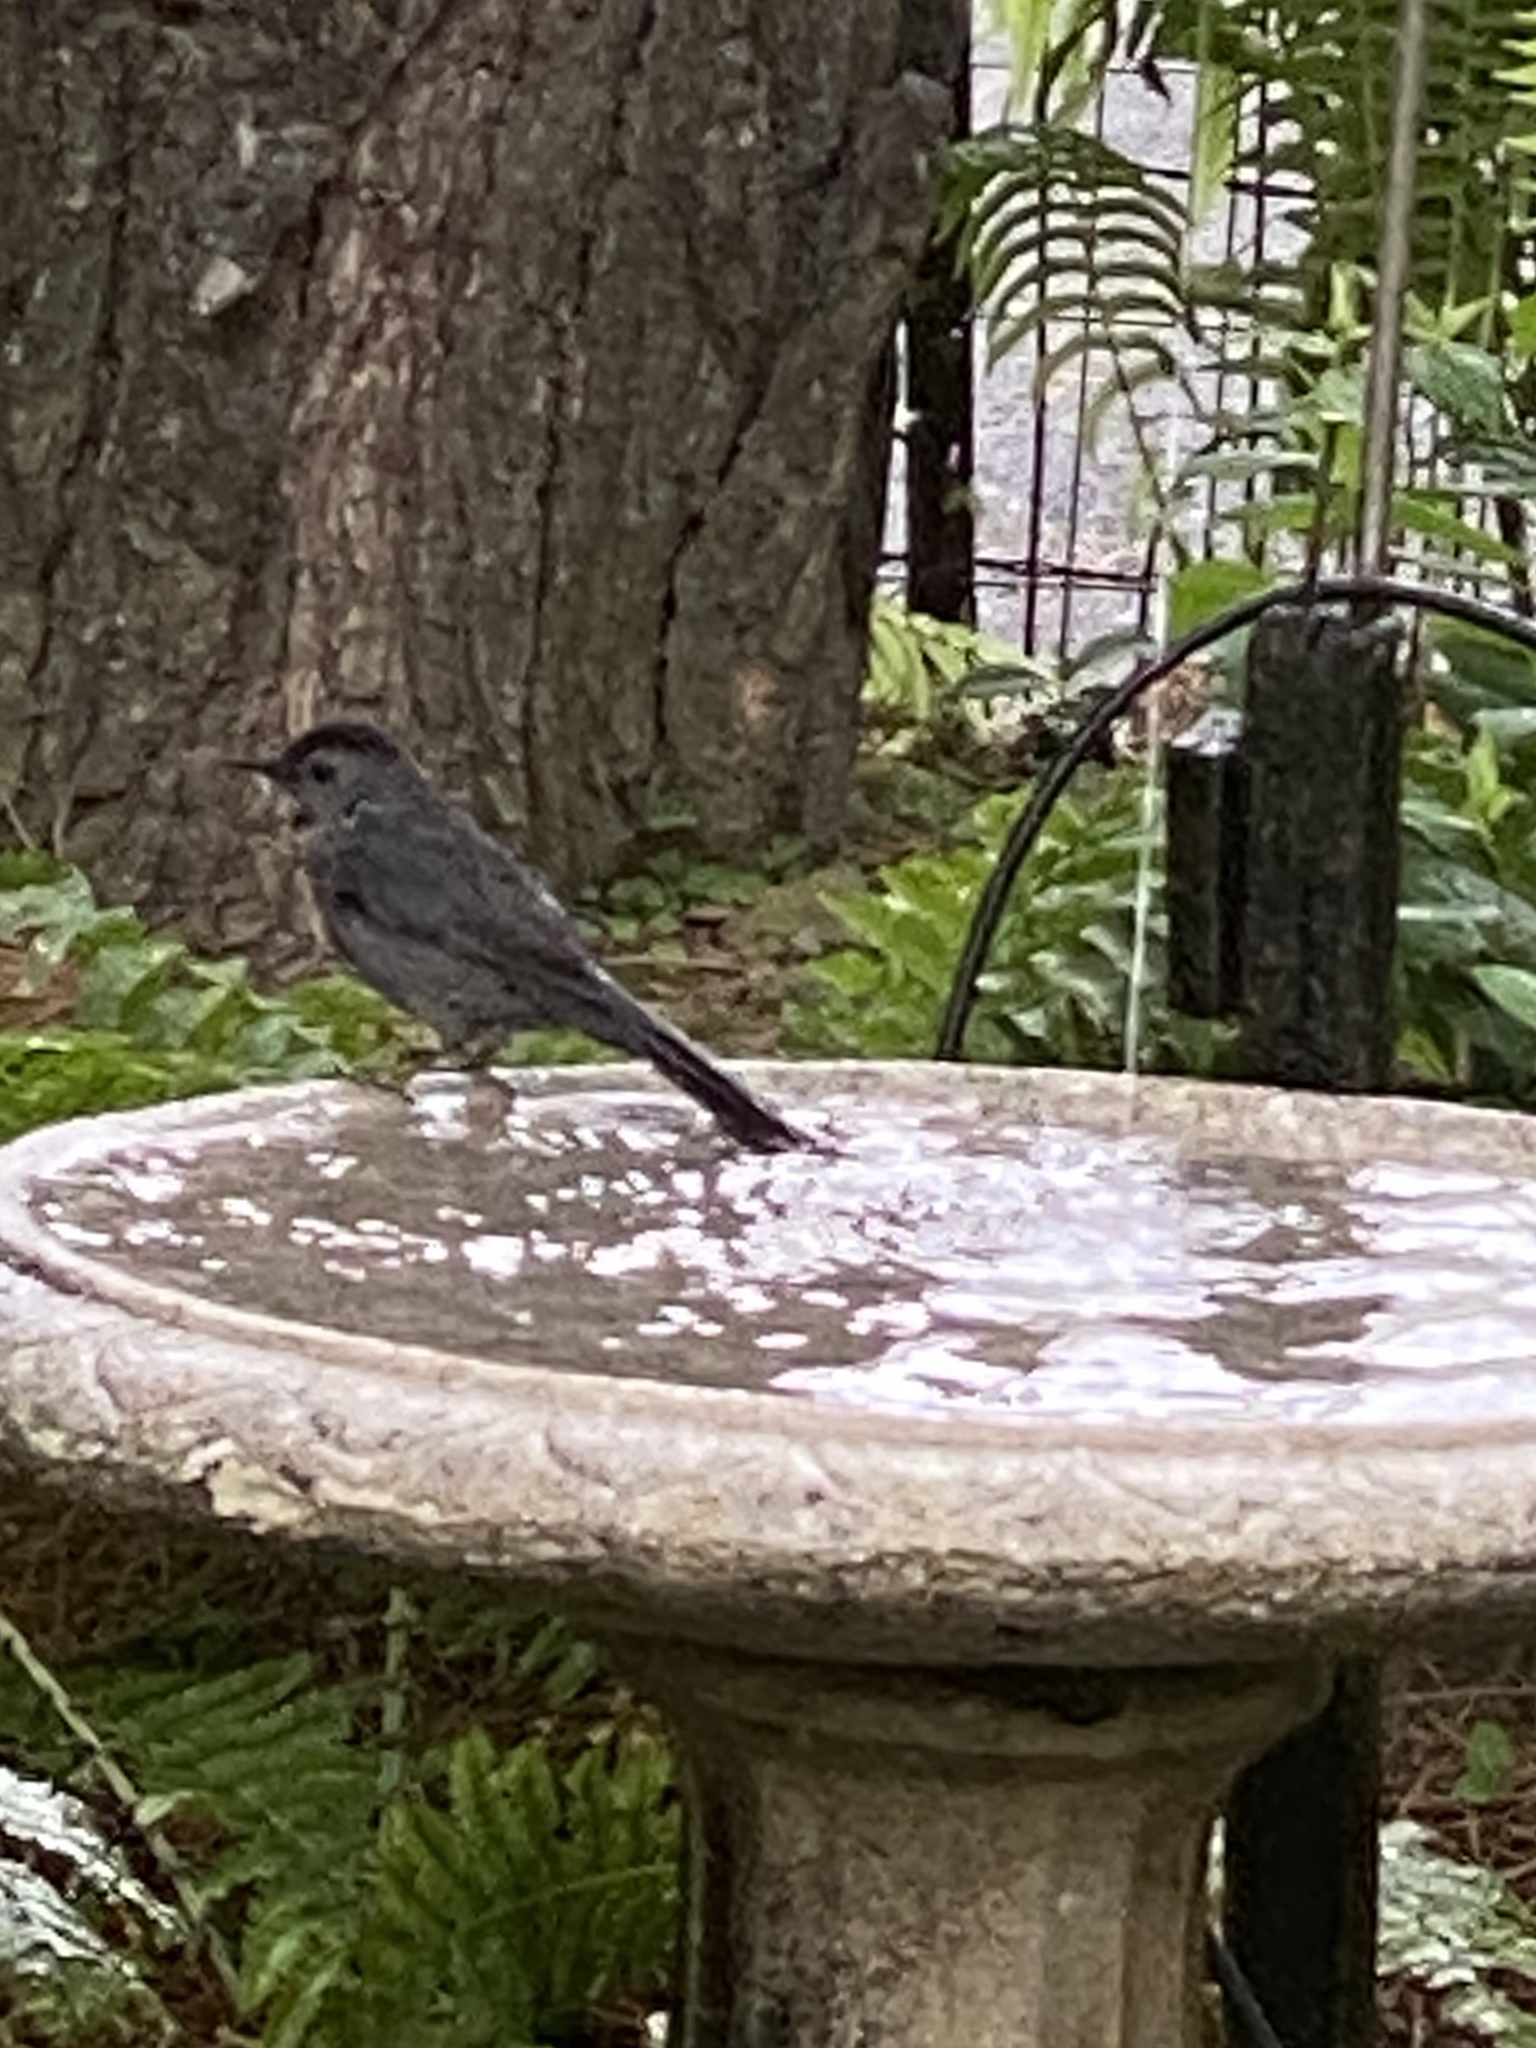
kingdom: Animalia
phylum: Chordata
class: Aves
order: Passeriformes
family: Mimidae
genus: Dumetella
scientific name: Dumetella carolinensis
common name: Gray catbird
